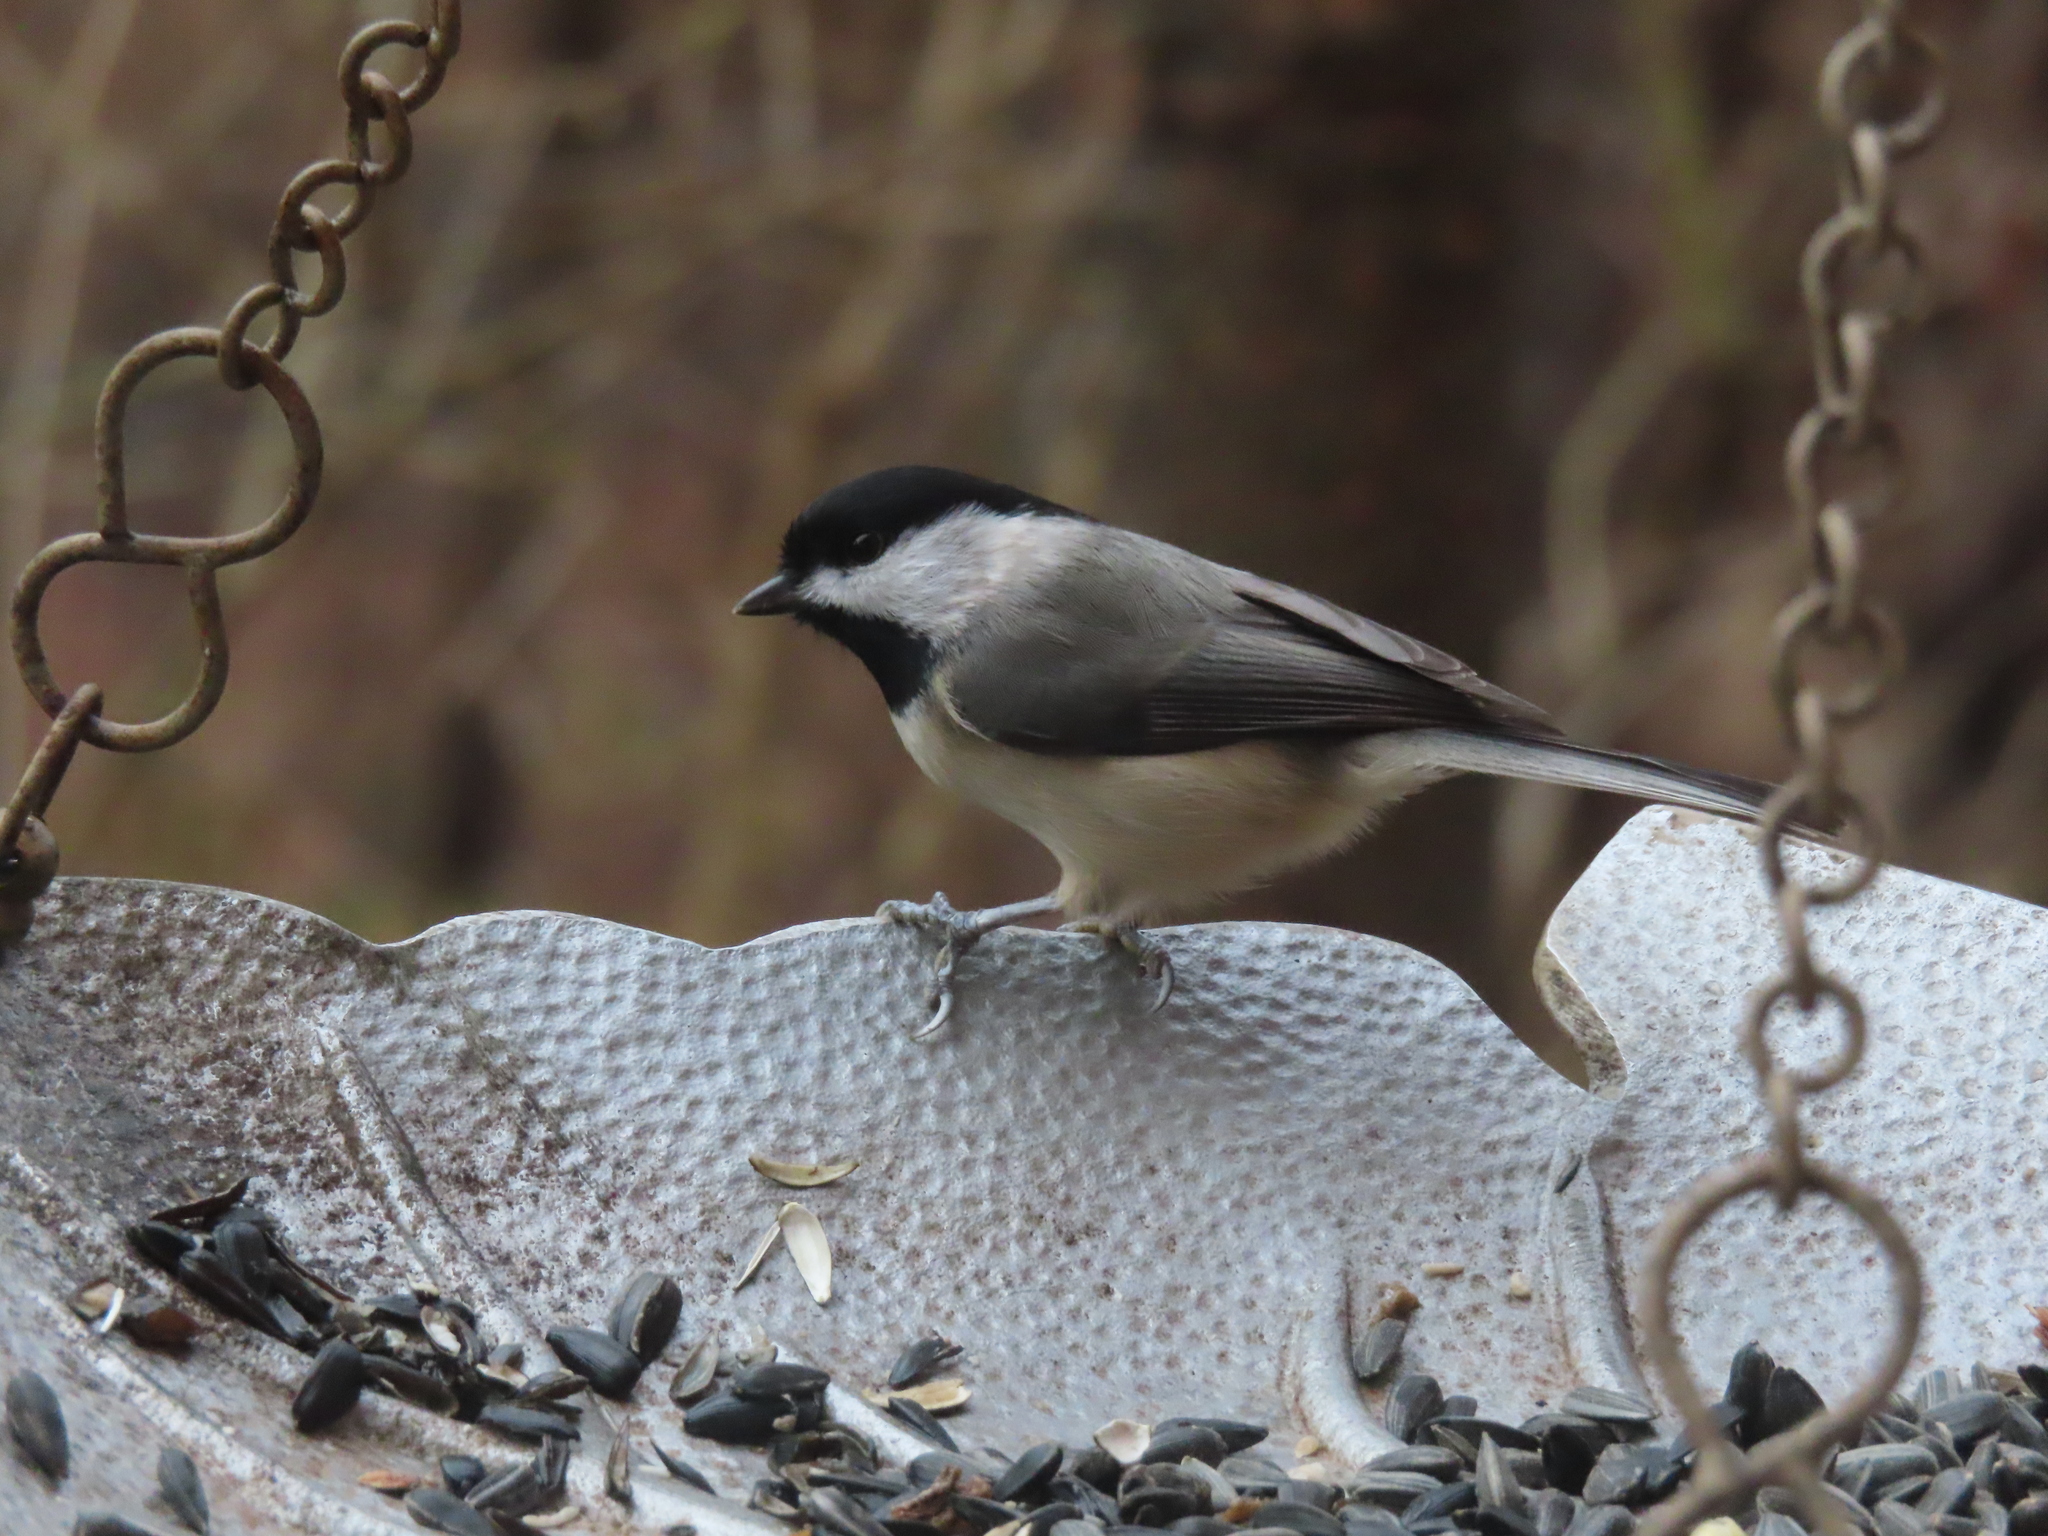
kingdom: Animalia
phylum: Chordata
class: Aves
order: Passeriformes
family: Paridae
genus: Poecile
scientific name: Poecile carolinensis
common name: Carolina chickadee
